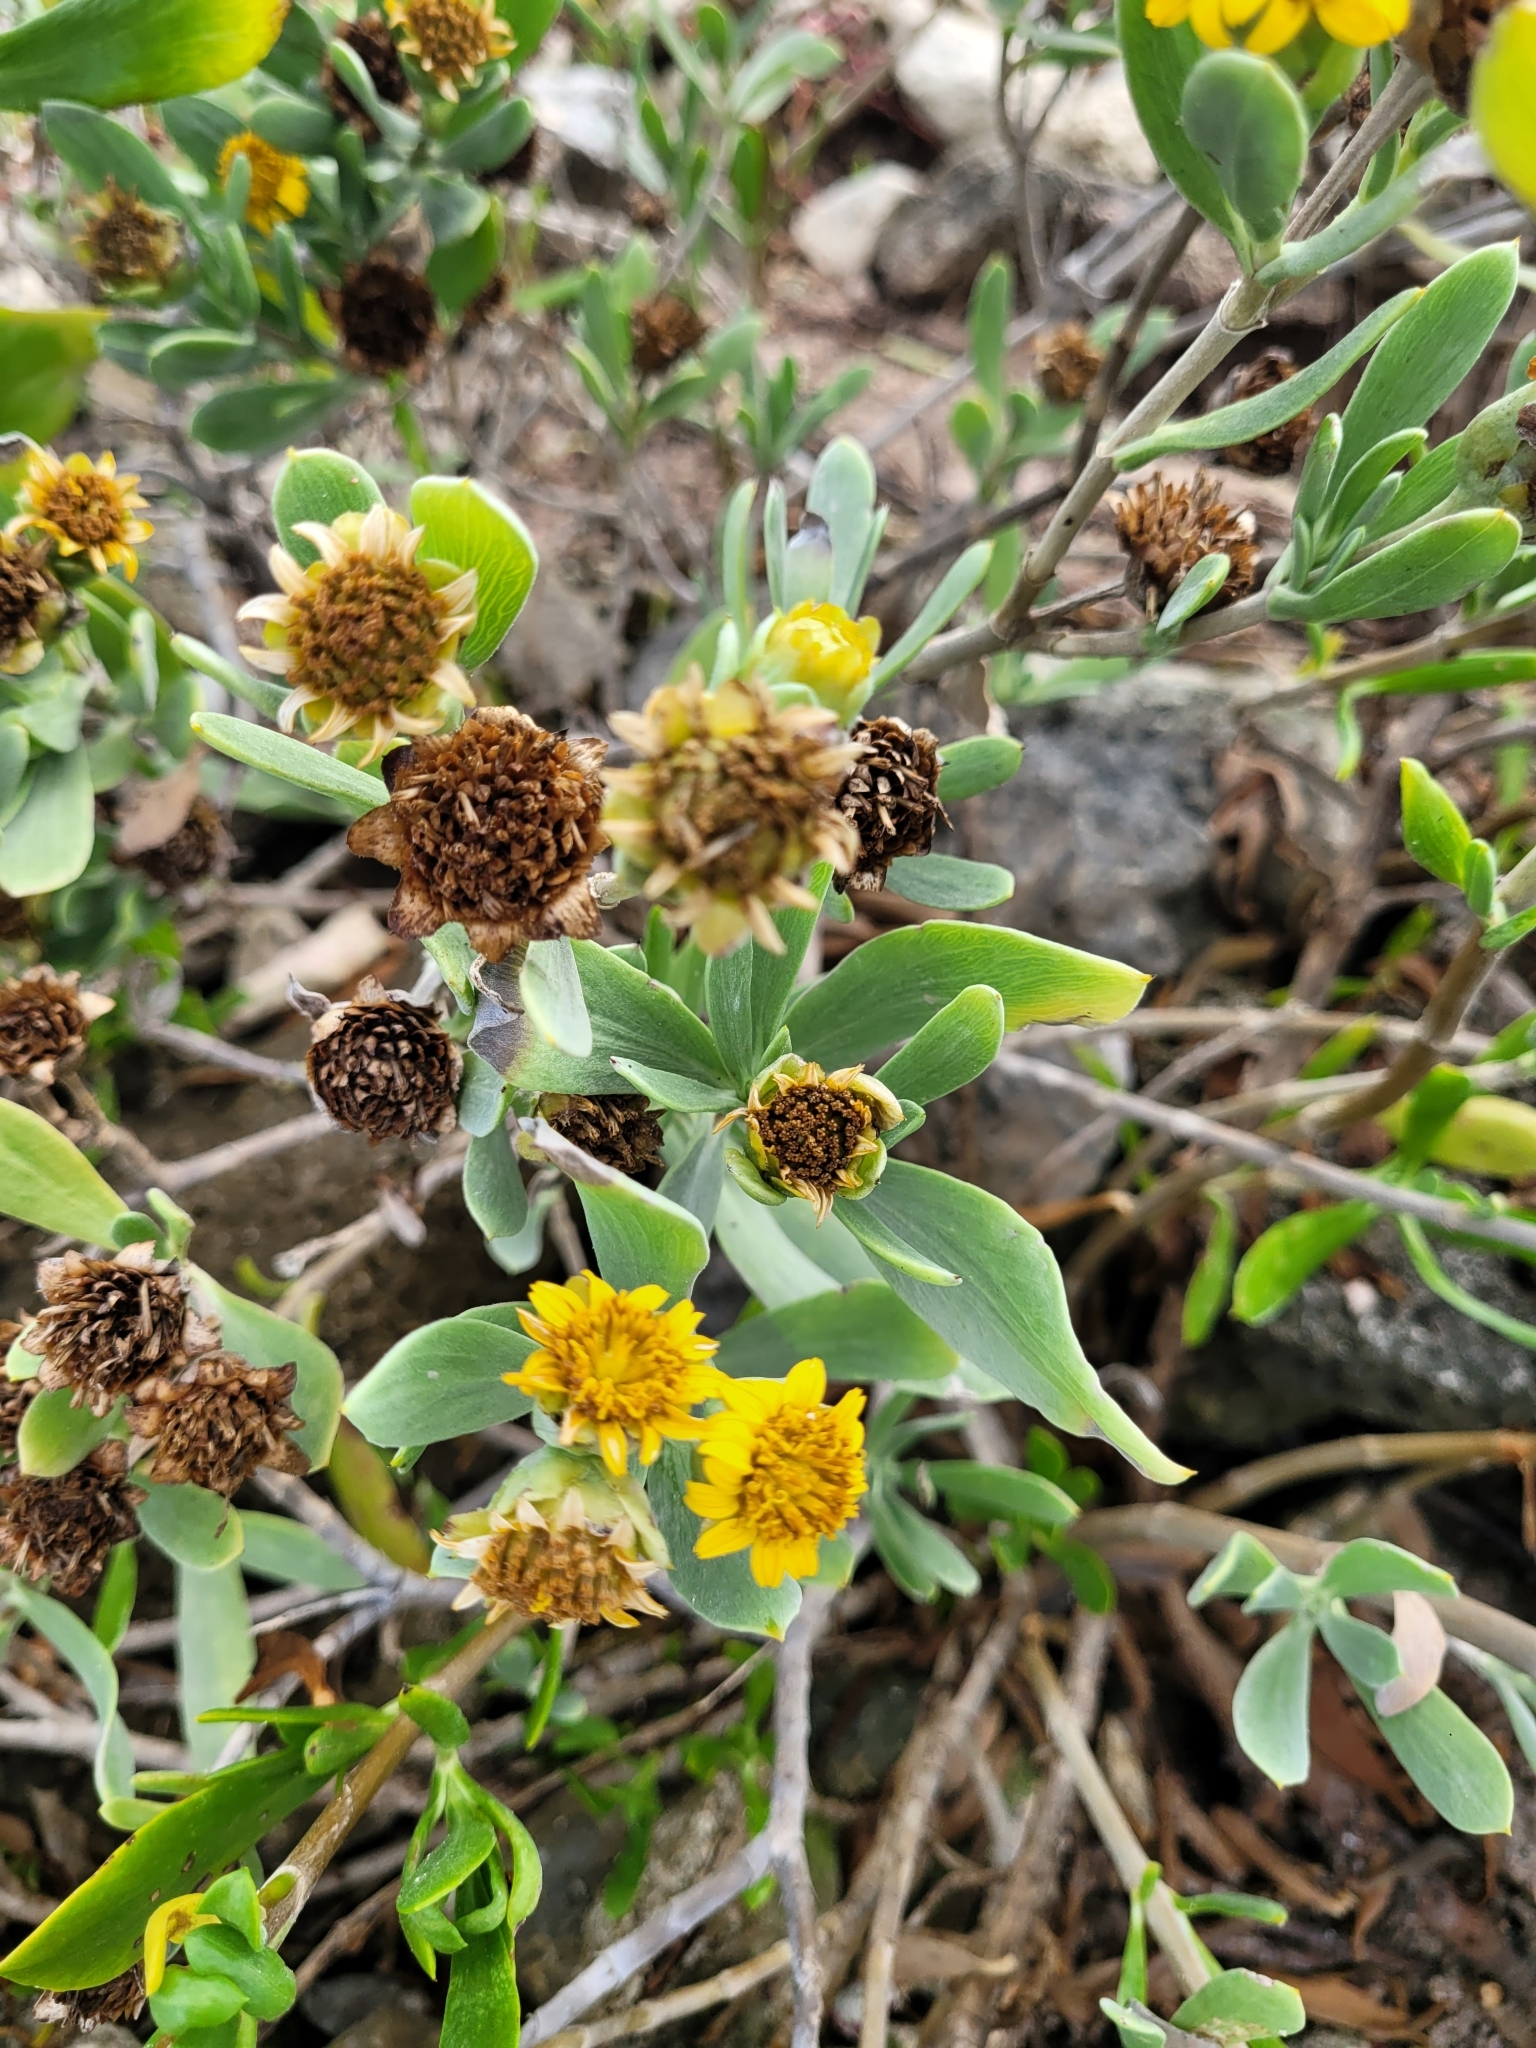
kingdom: Plantae
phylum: Tracheophyta
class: Magnoliopsida
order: Asterales
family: Asteraceae
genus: Borrichia
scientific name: Borrichia frutescens
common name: Sea oxeye
